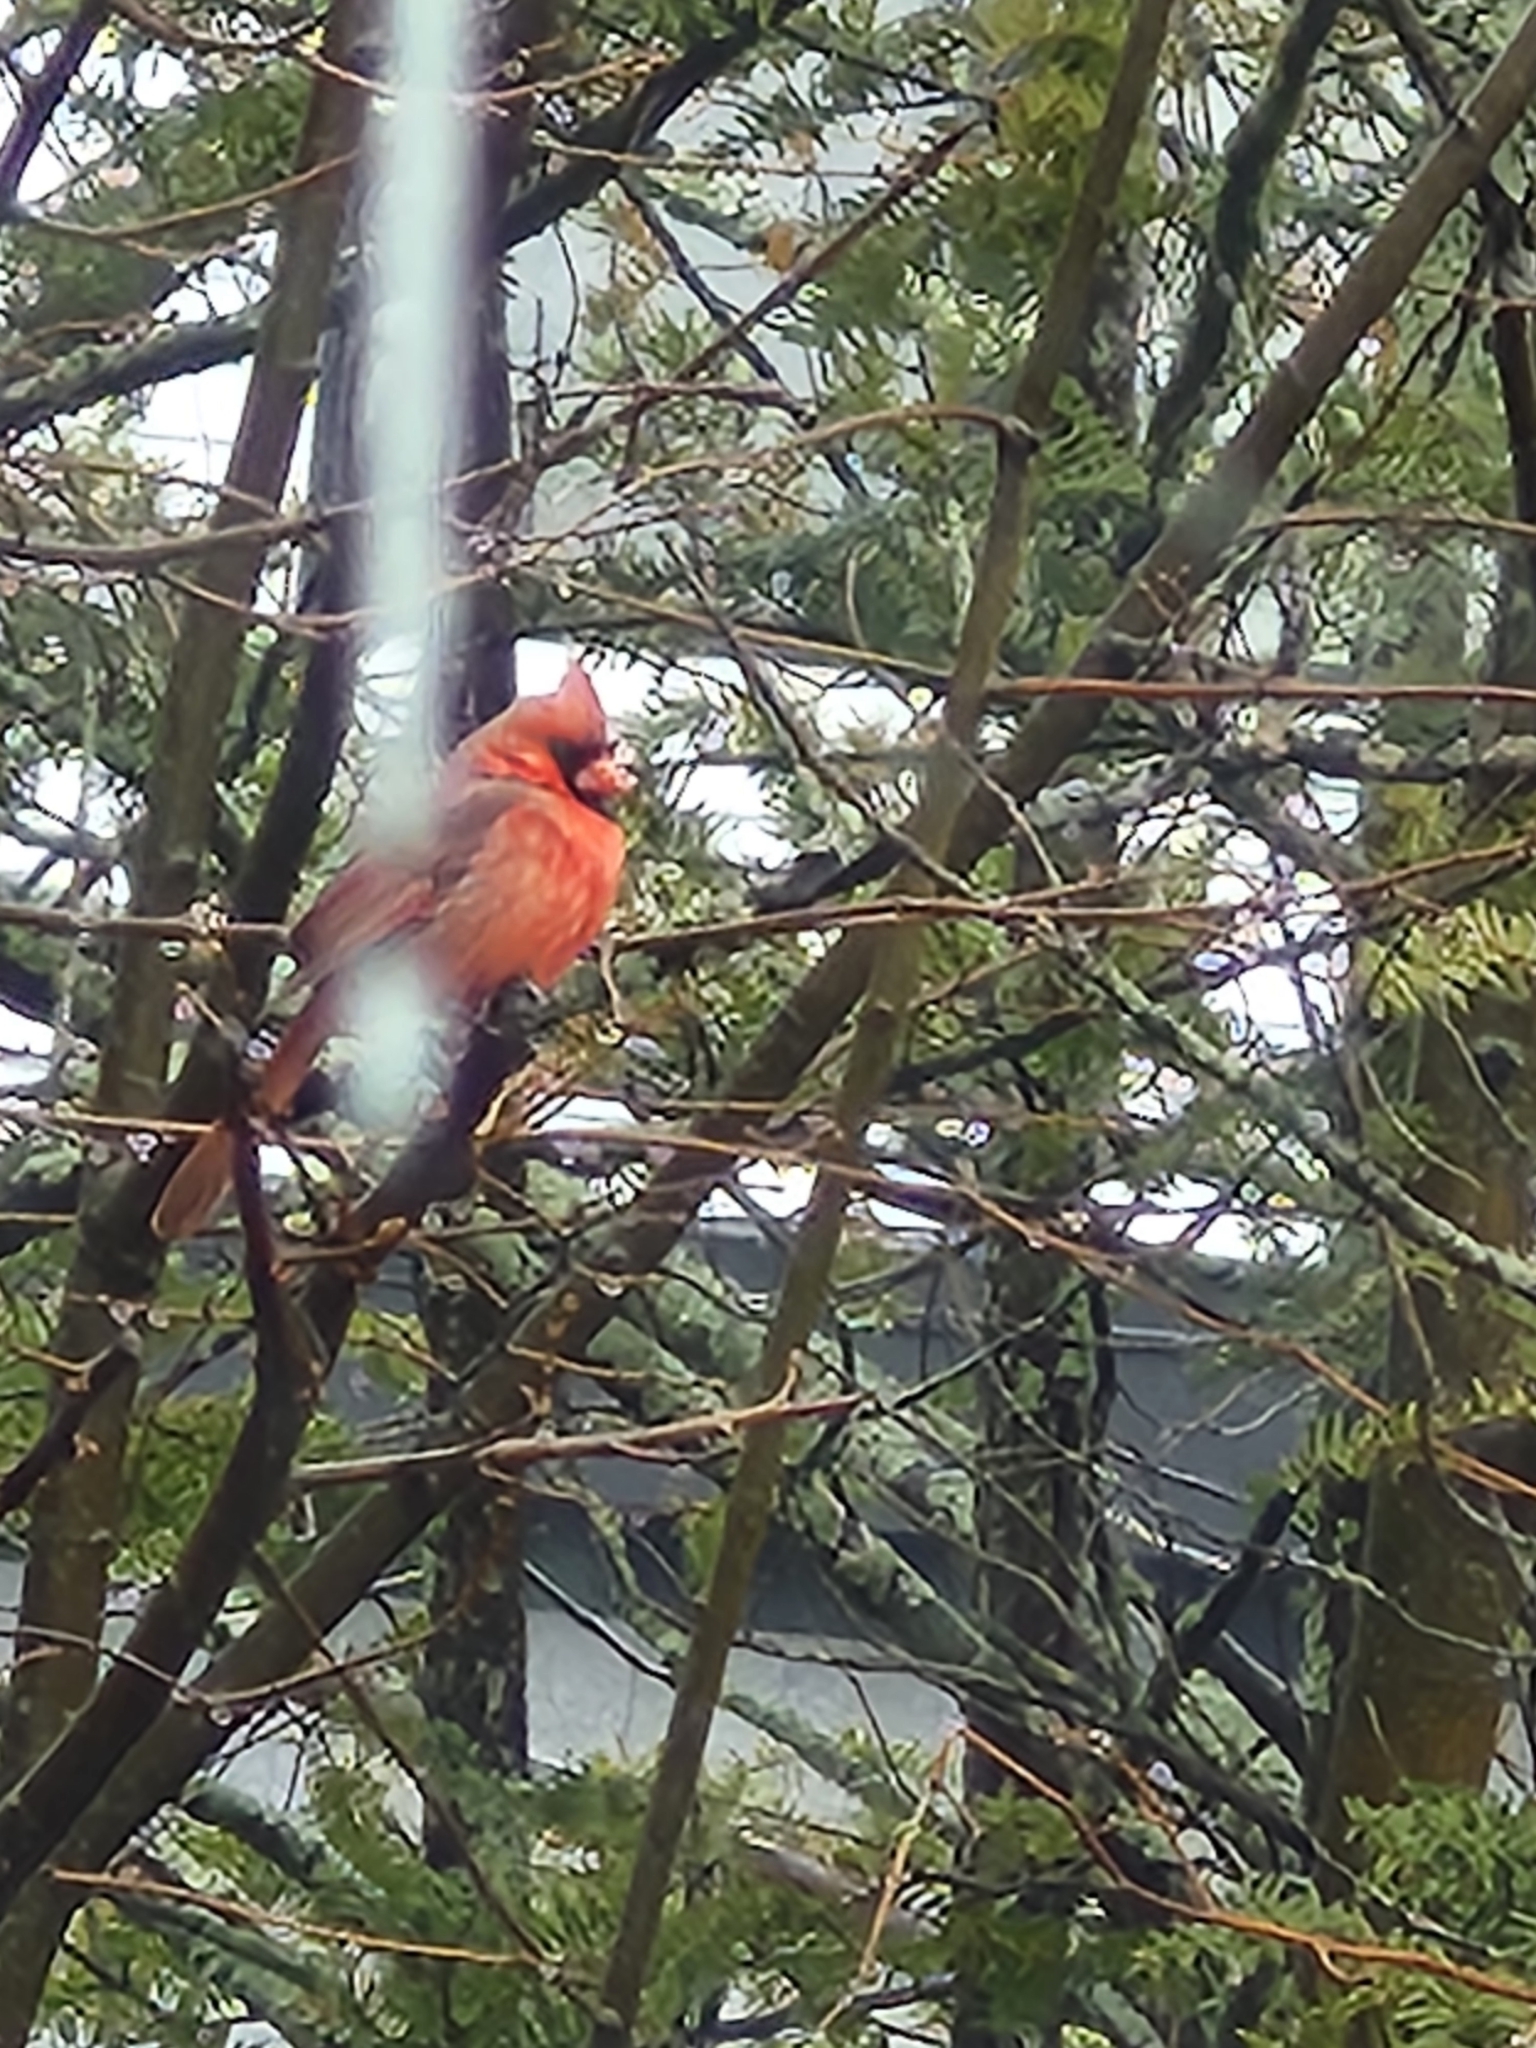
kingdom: Animalia
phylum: Chordata
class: Aves
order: Passeriformes
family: Cardinalidae
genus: Cardinalis
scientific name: Cardinalis cardinalis
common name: Northern cardinal
